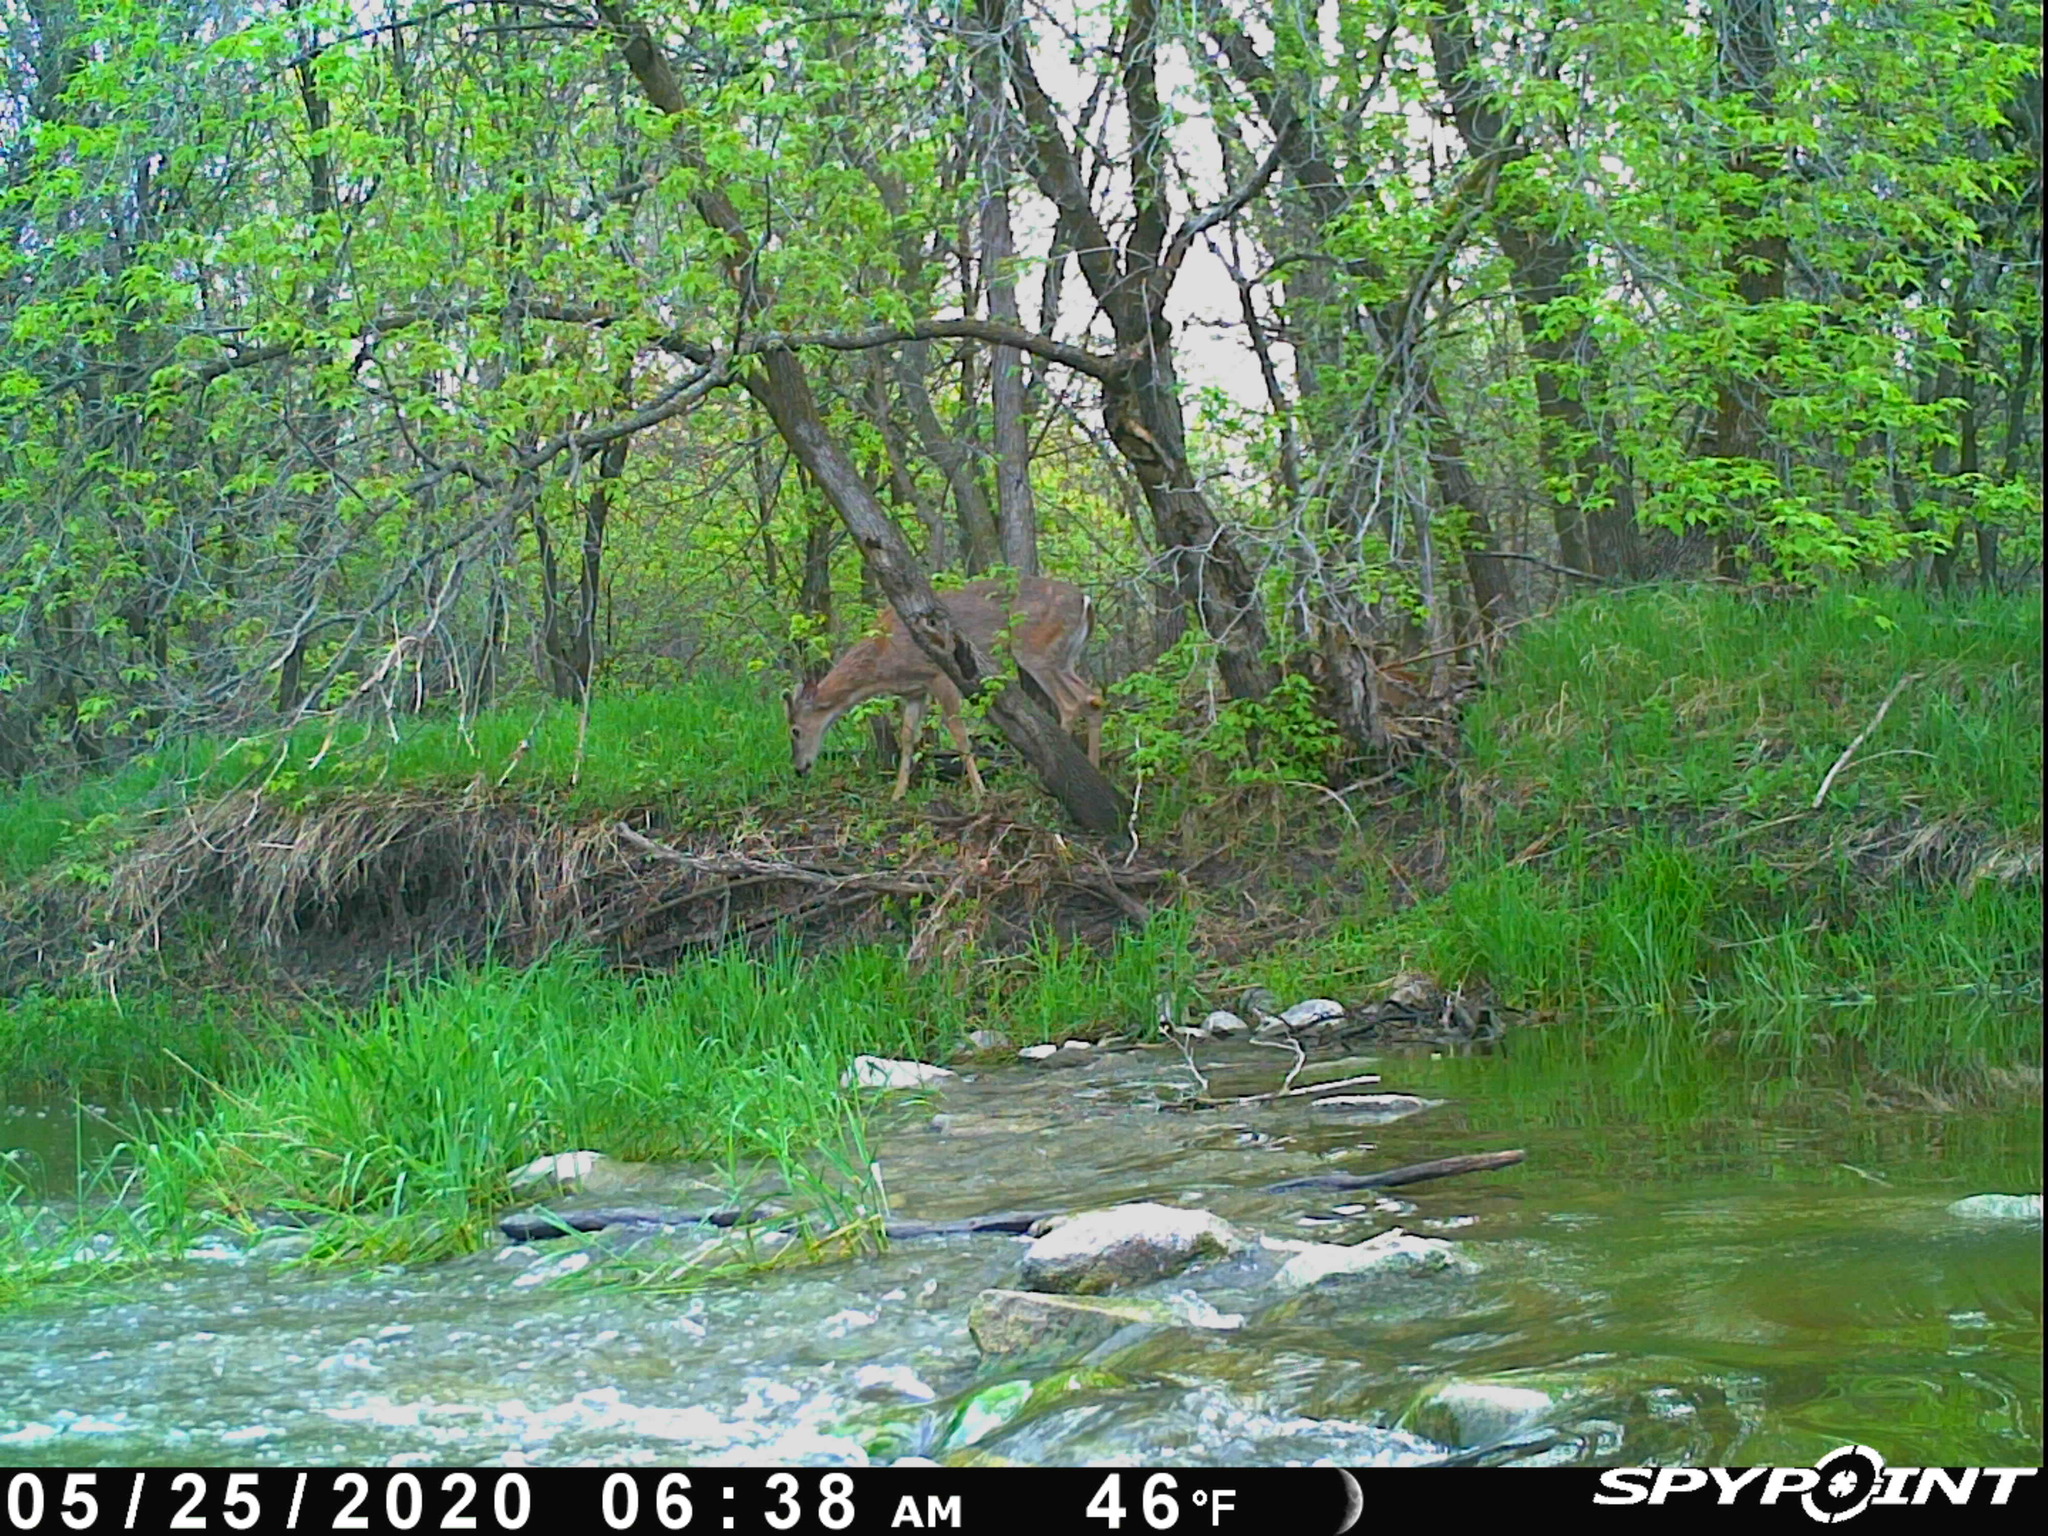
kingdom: Animalia
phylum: Chordata
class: Mammalia
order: Artiodactyla
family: Cervidae
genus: Odocoileus
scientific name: Odocoileus virginianus
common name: White-tailed deer
